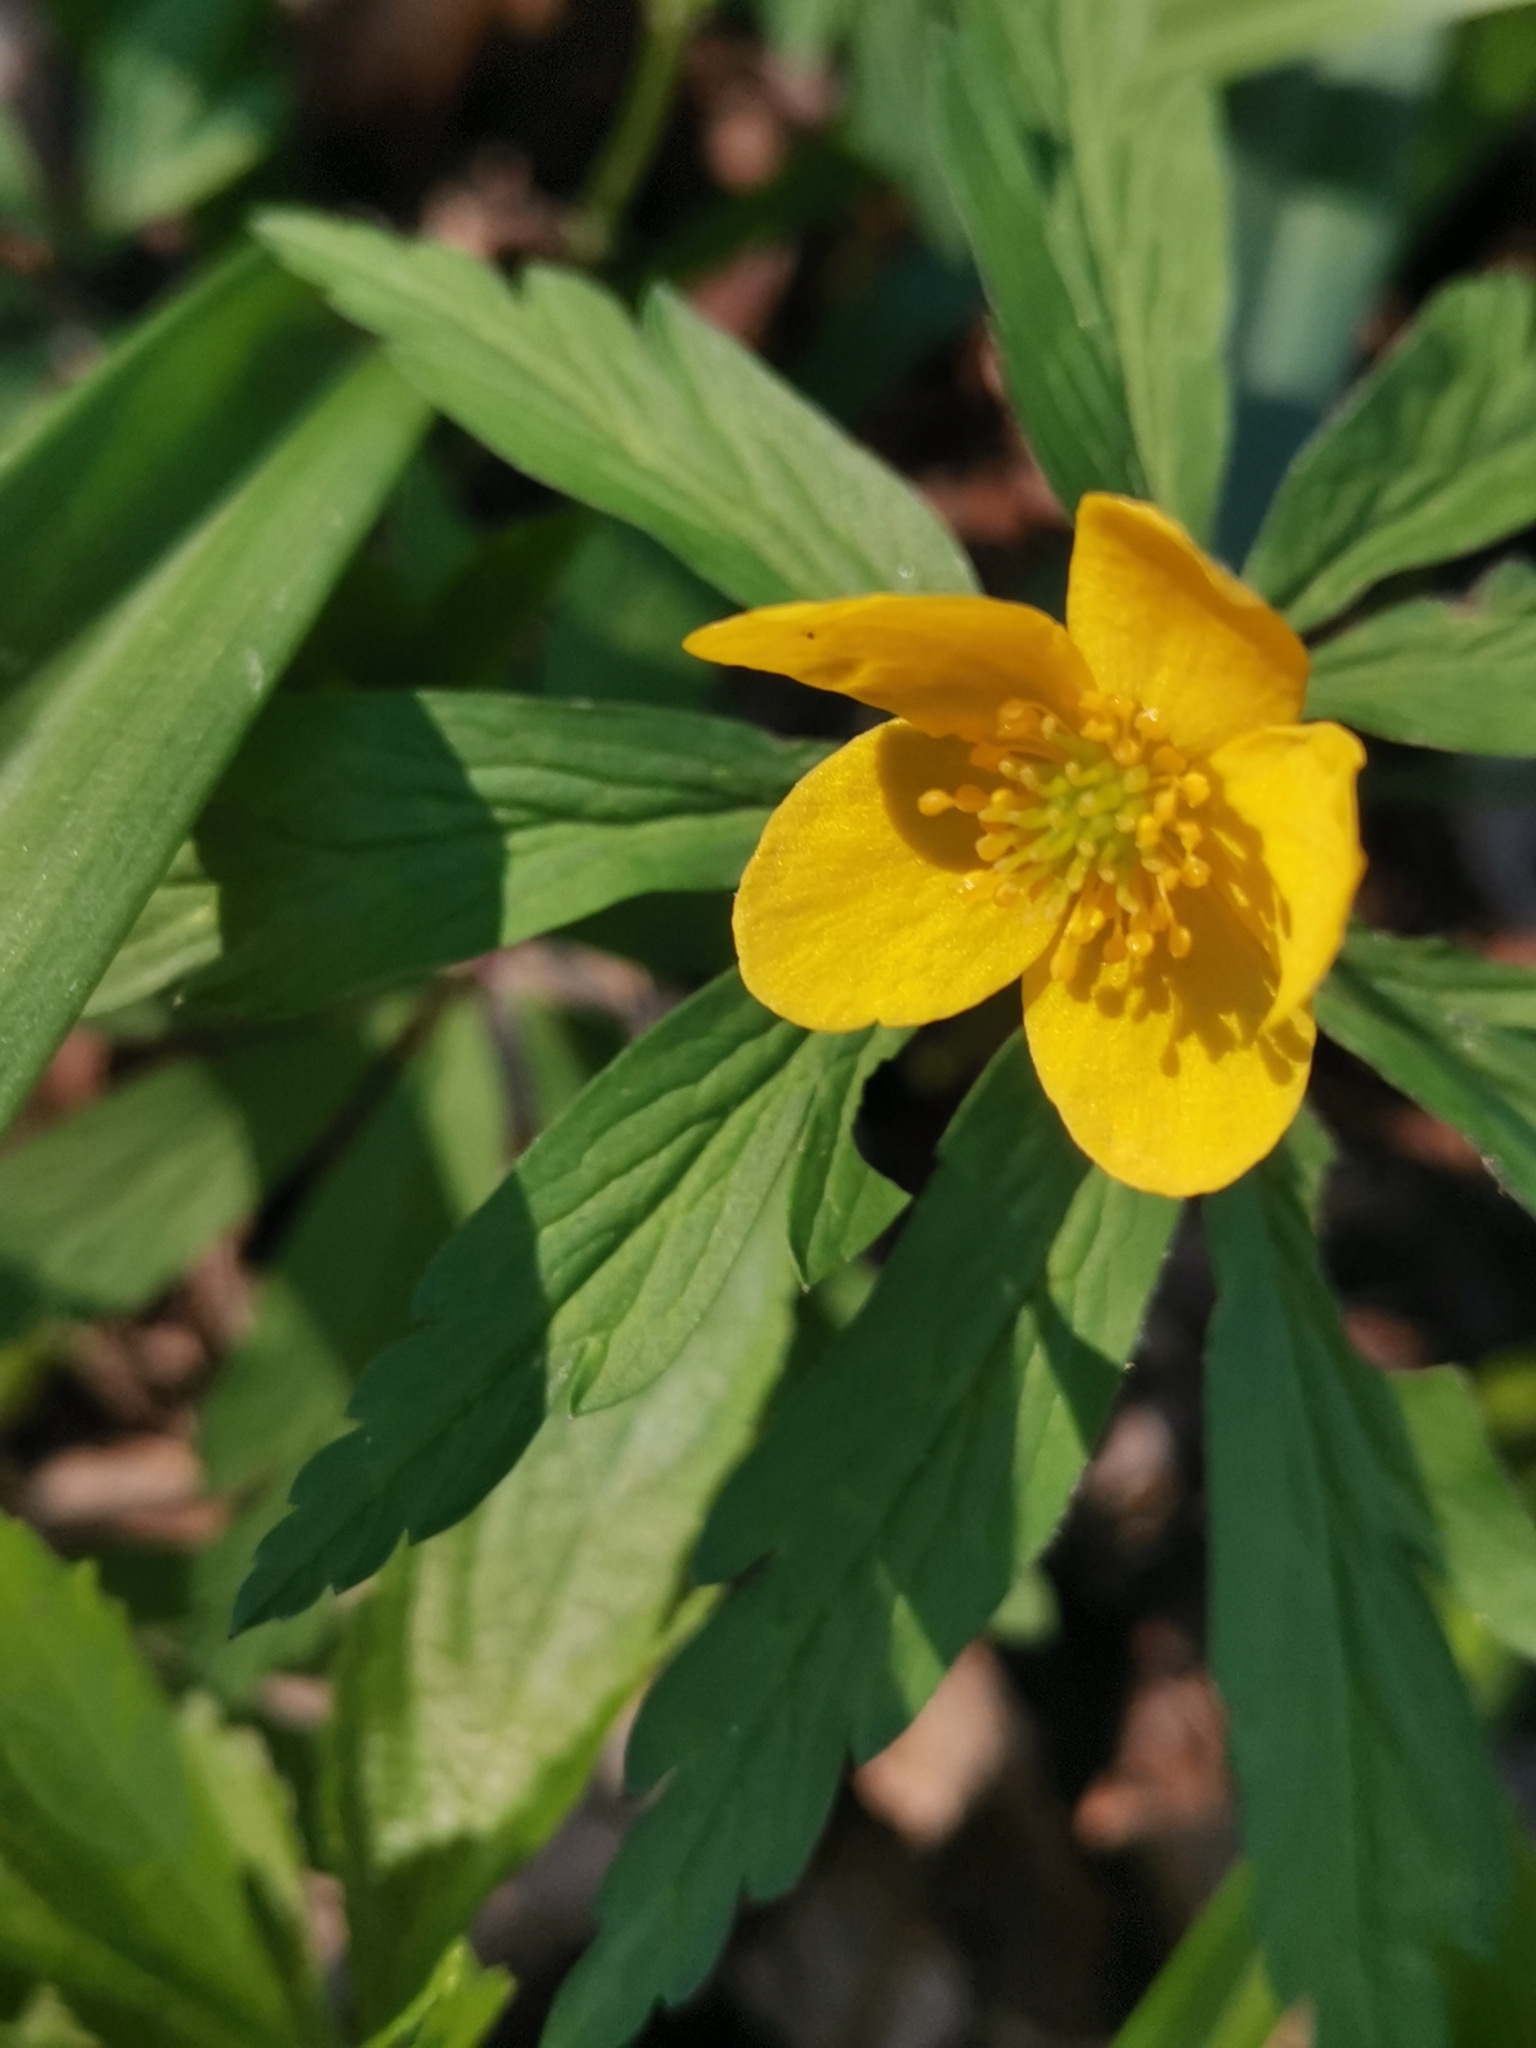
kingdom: Plantae
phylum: Tracheophyta
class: Magnoliopsida
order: Ranunculales
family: Ranunculaceae
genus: Anemone
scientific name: Anemone ranunculoides
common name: Yellow anemone
